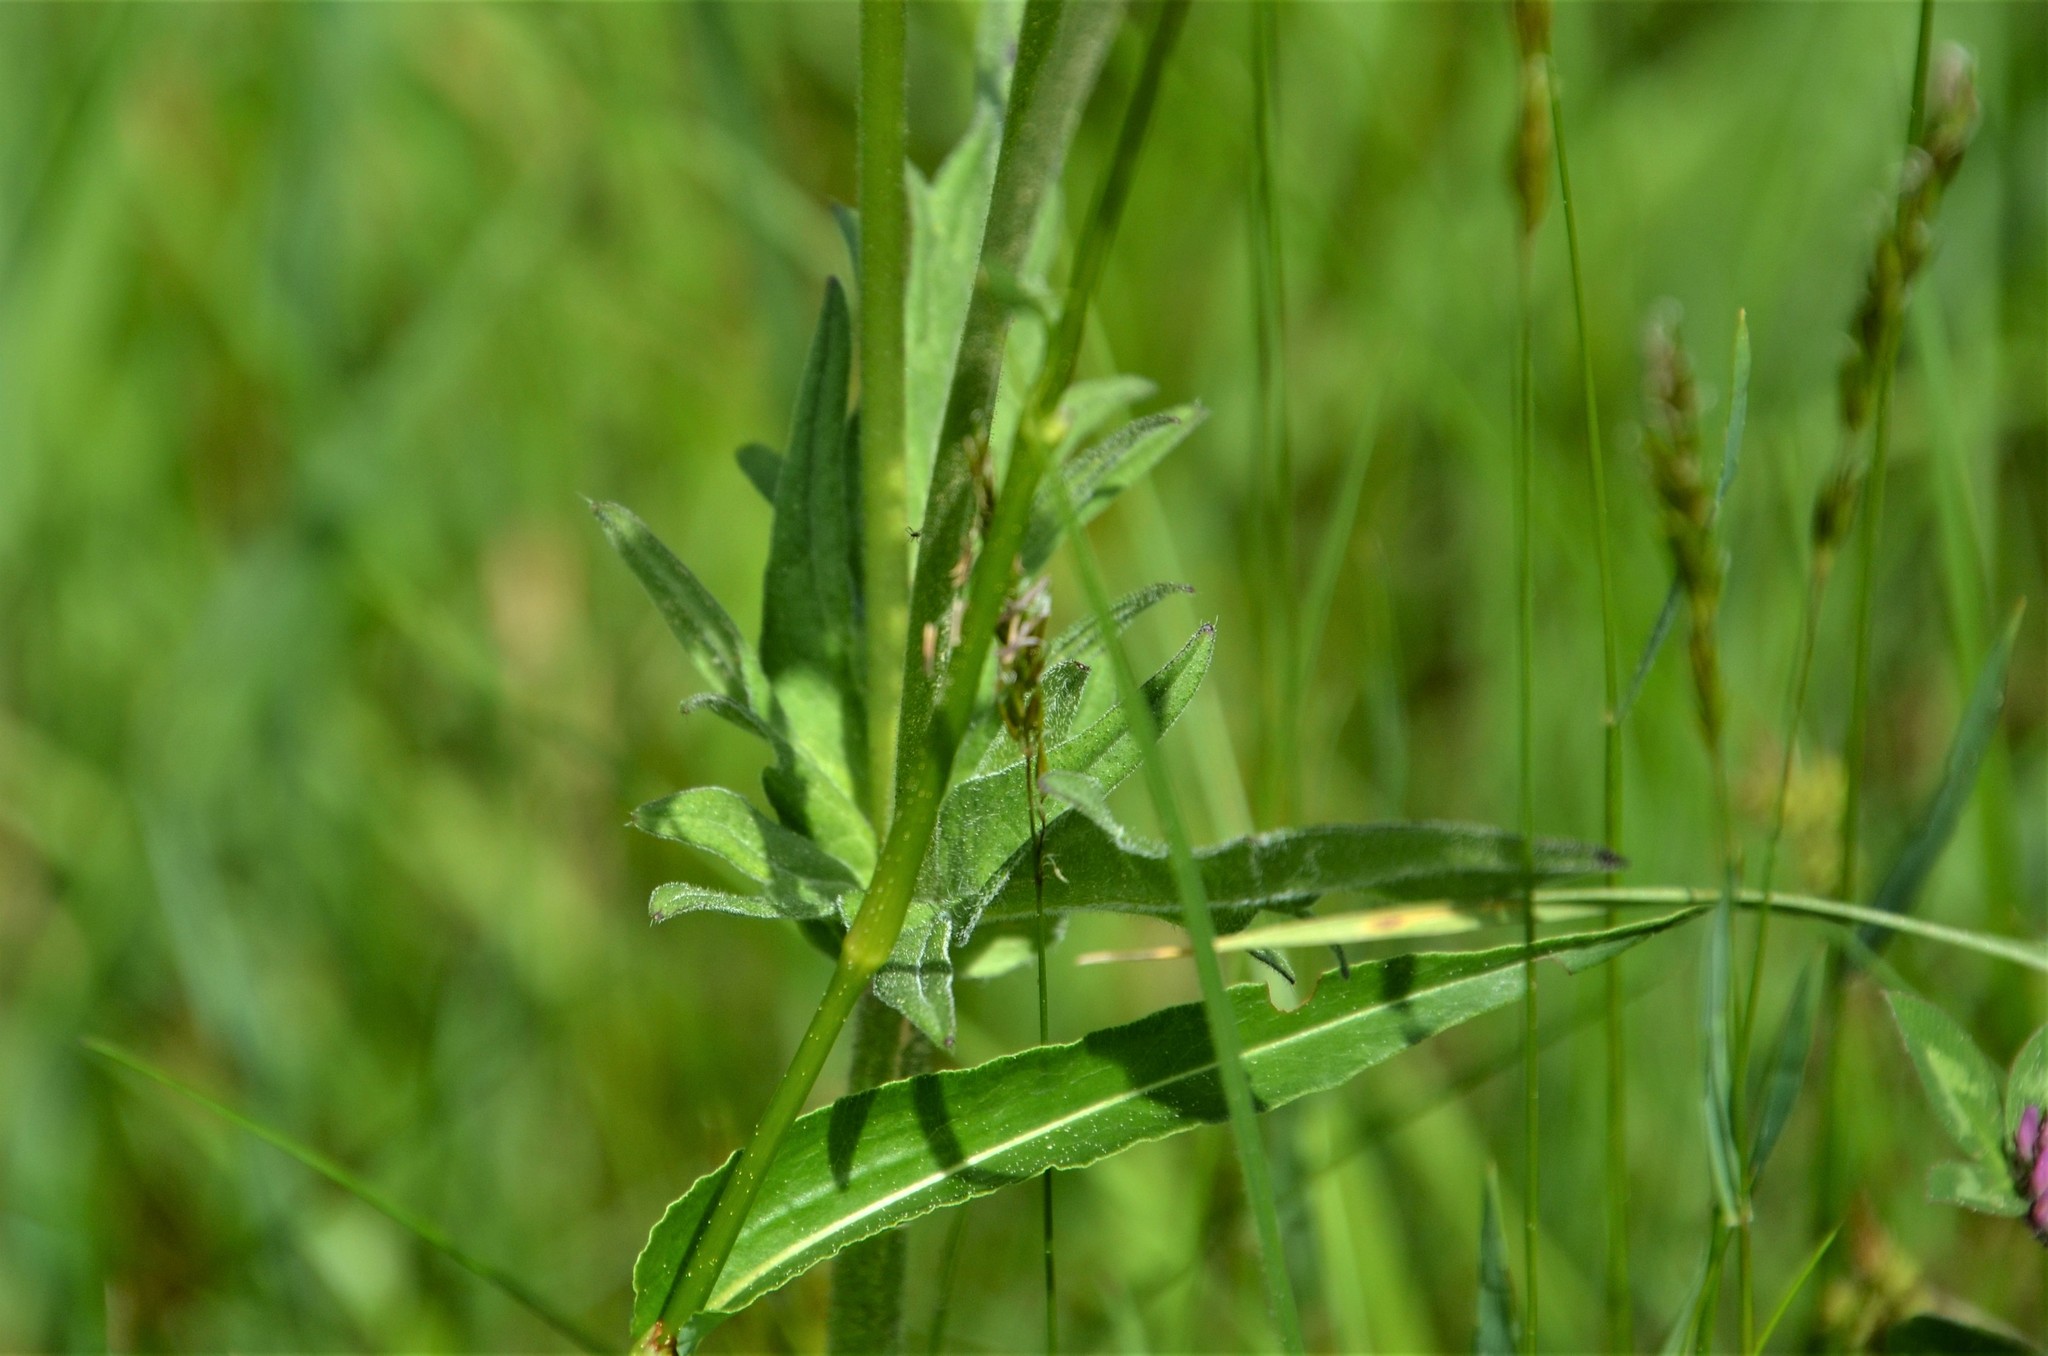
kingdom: Plantae
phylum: Tracheophyta
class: Magnoliopsida
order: Caryophyllales
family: Polygonaceae
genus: Bistorta
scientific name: Bistorta officinalis
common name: Common bistort
